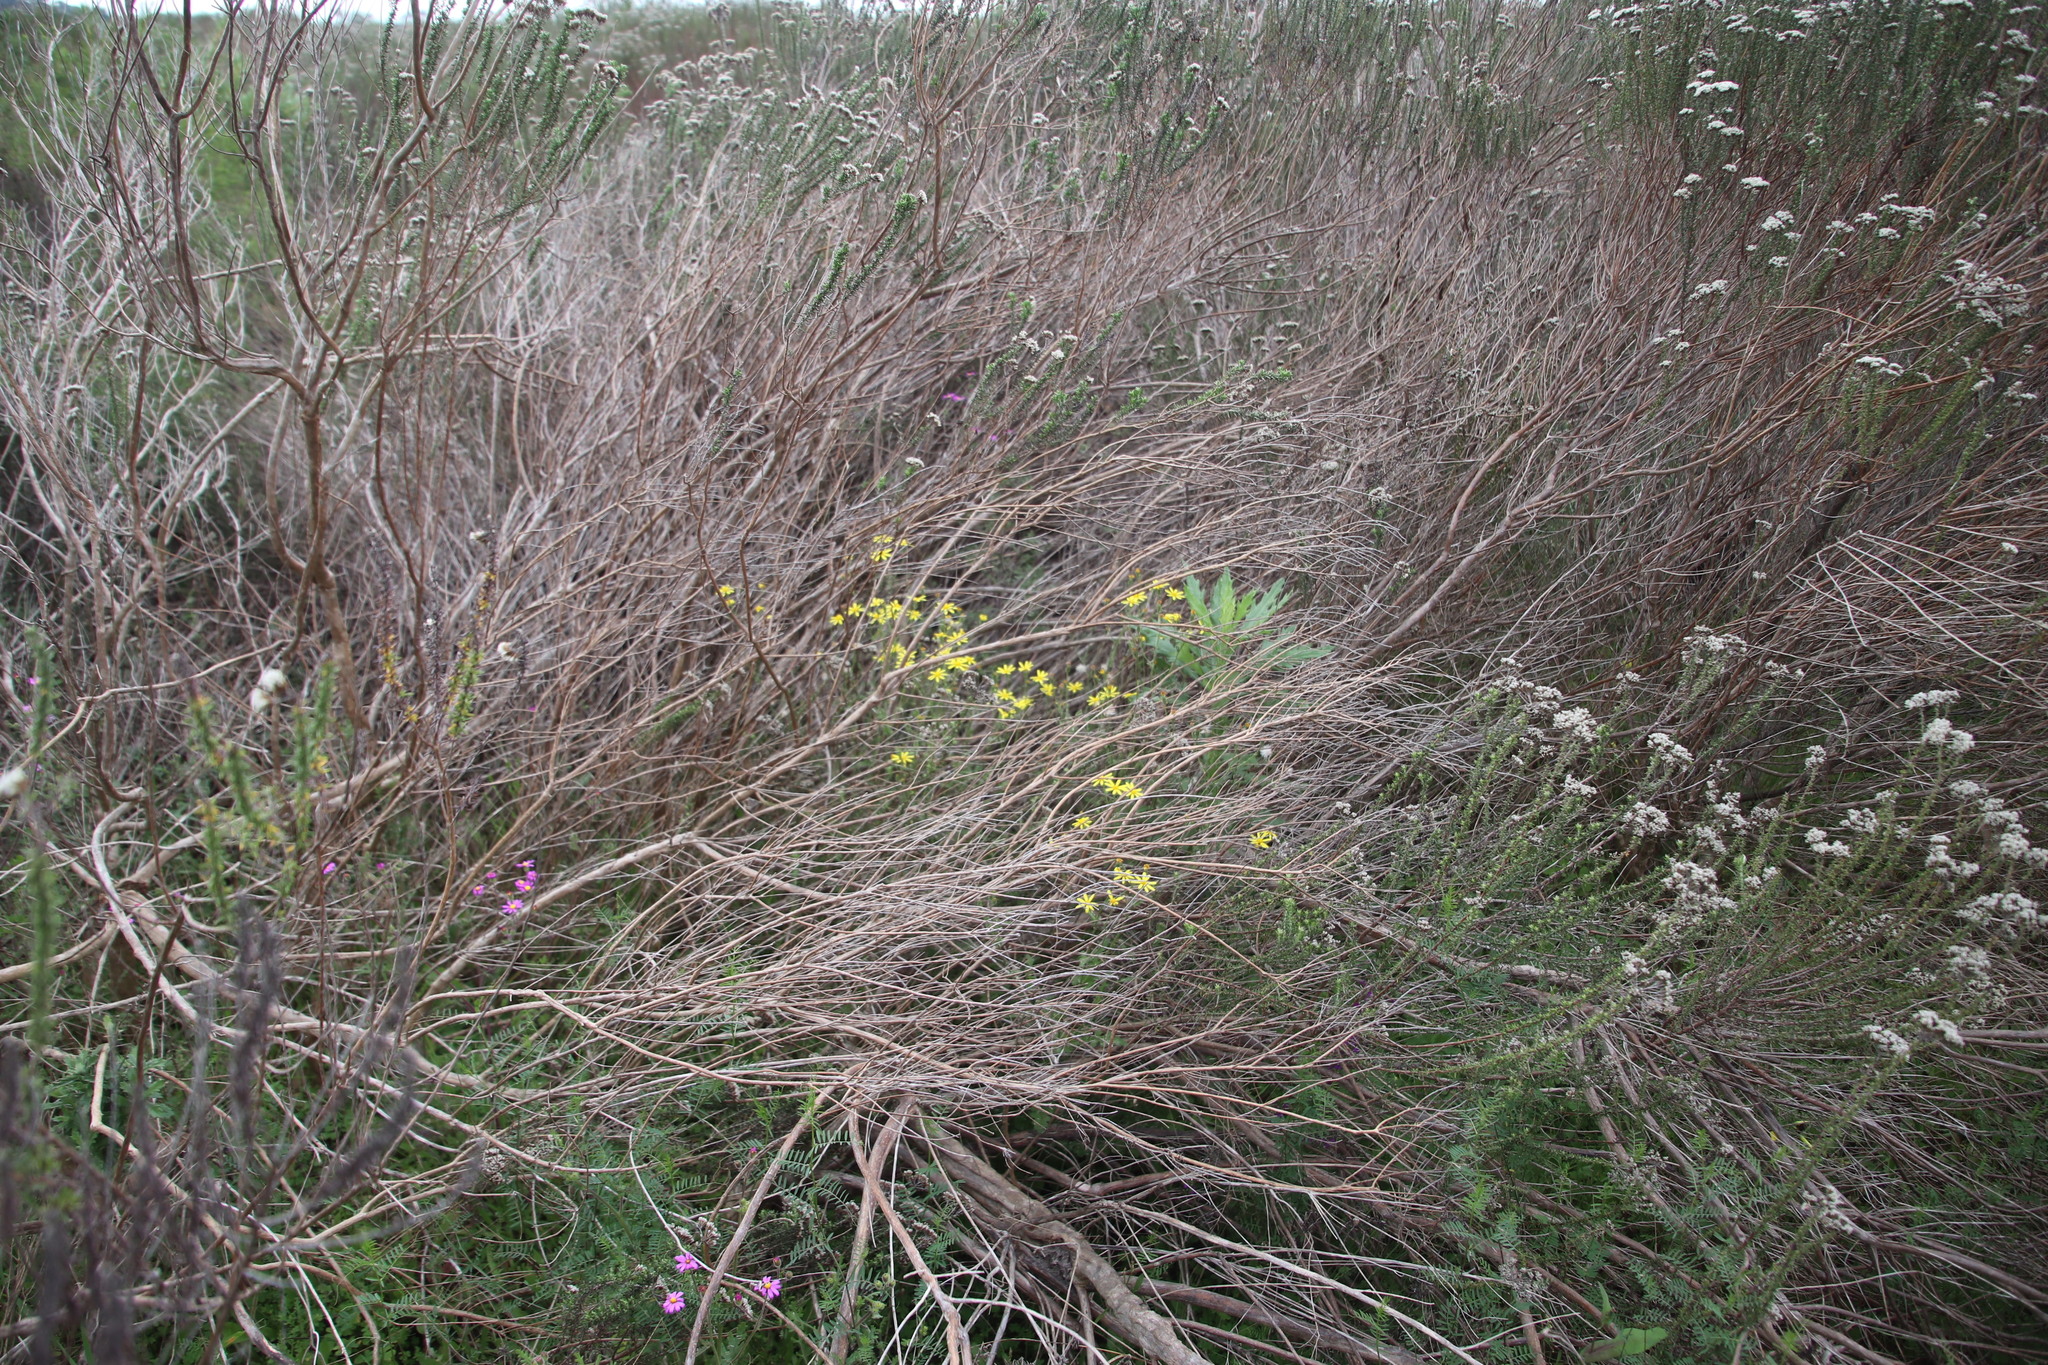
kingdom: Plantae
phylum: Tracheophyta
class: Magnoliopsida
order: Asterales
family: Asteraceae
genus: Senecio
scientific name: Senecio hastatus
